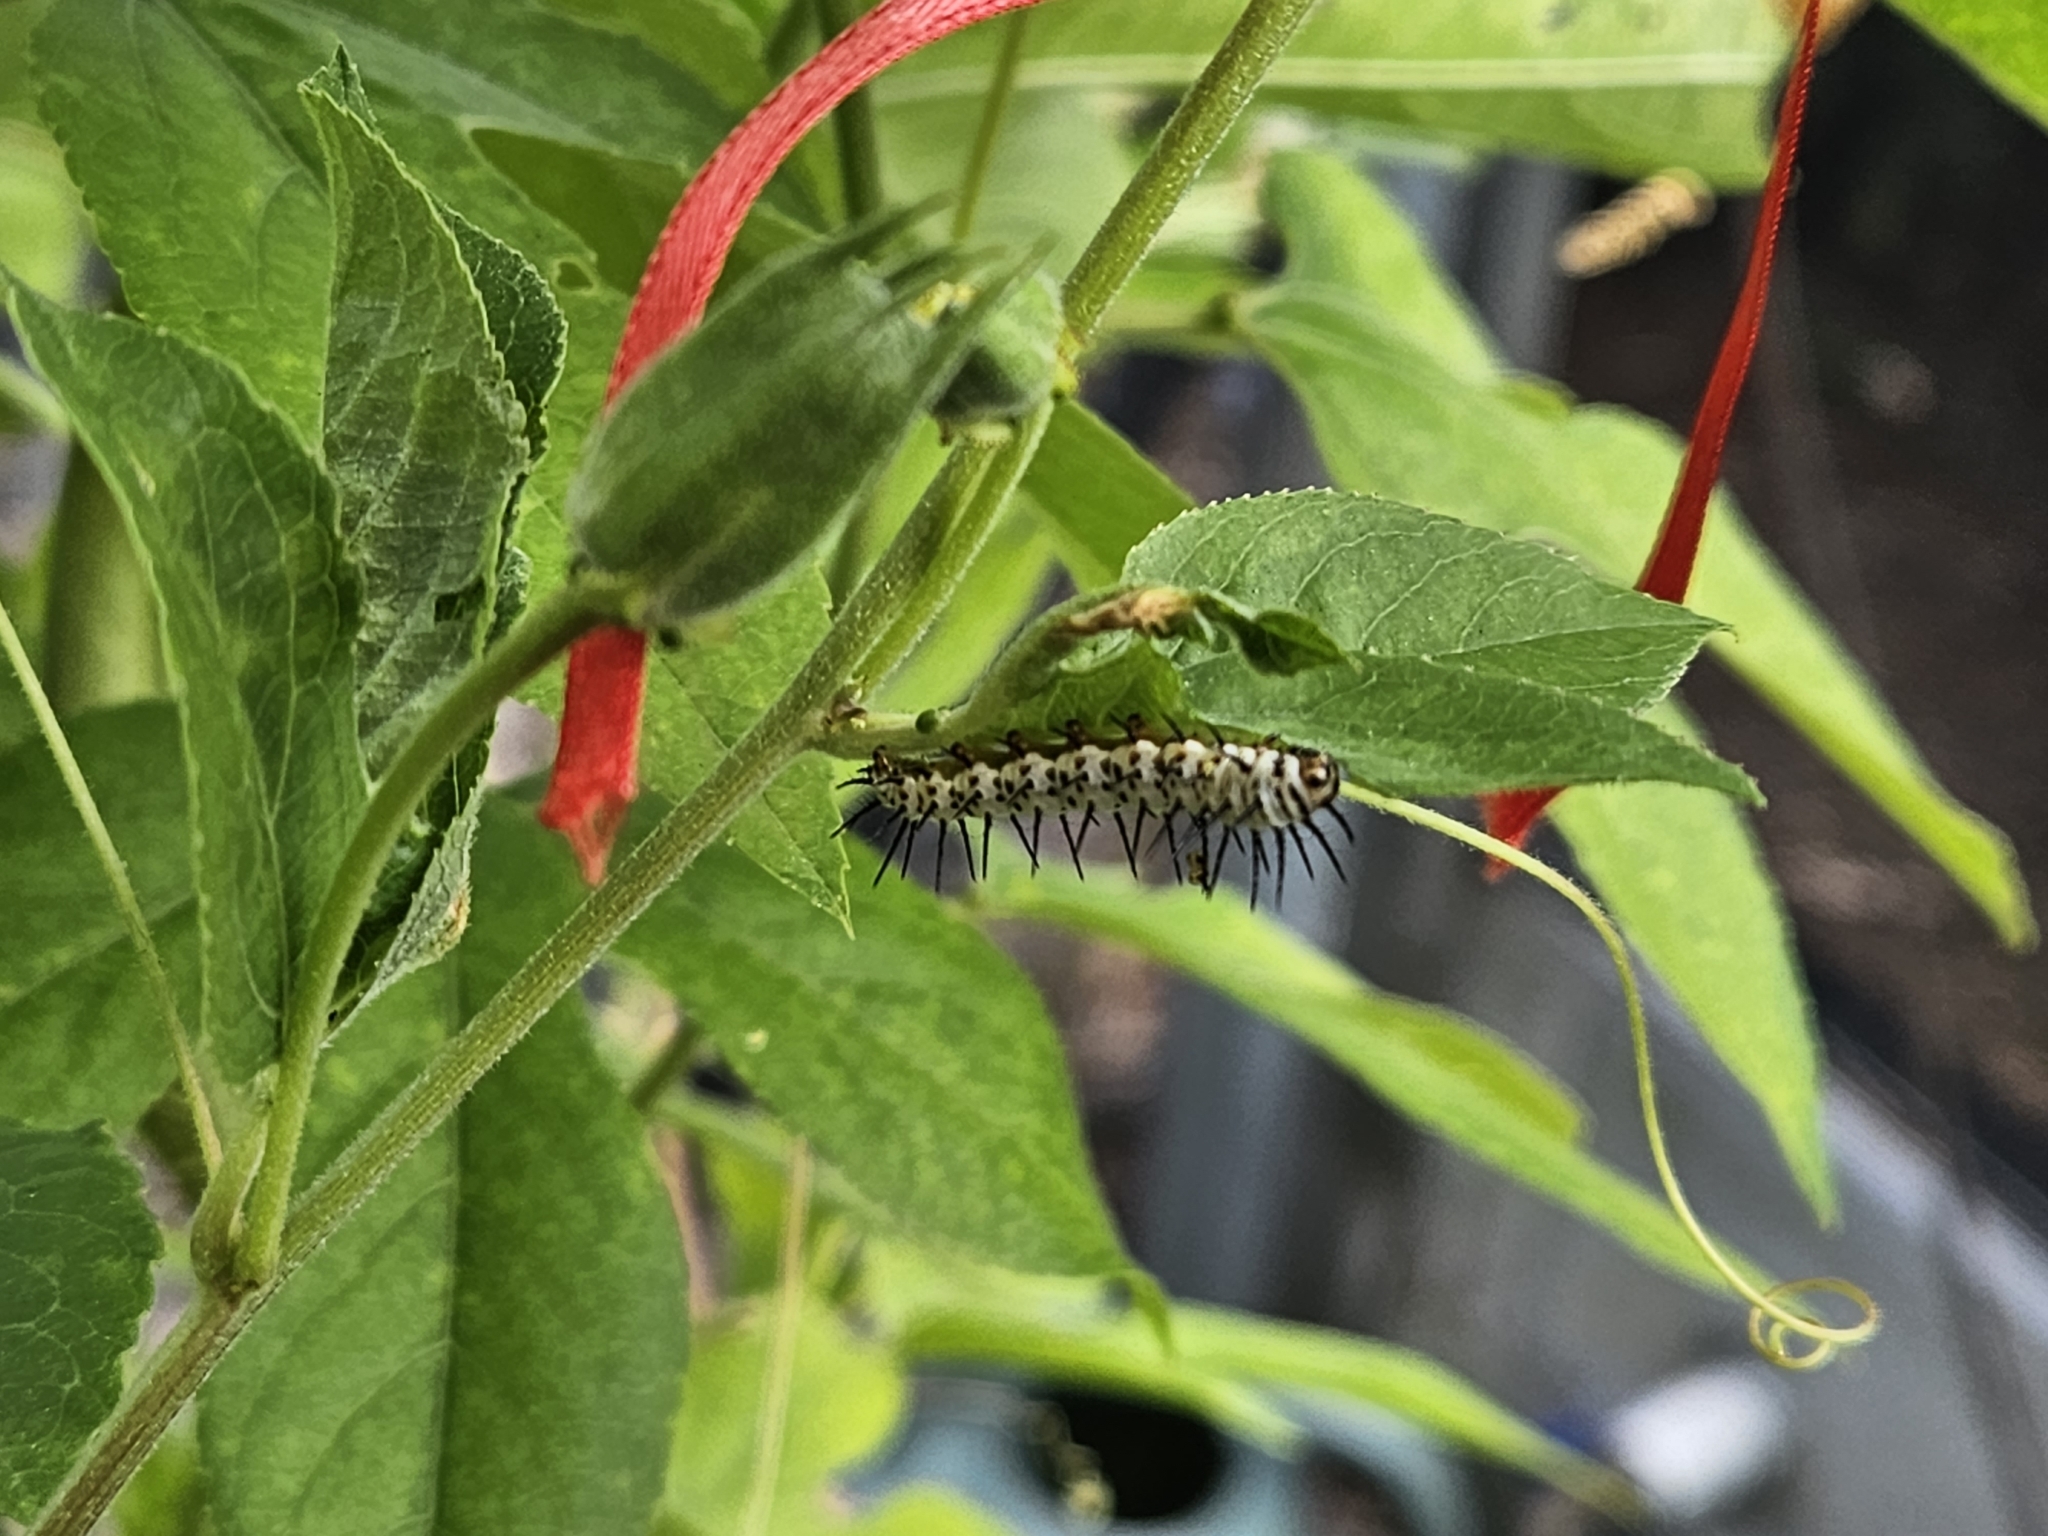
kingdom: Animalia
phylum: Arthropoda
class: Insecta
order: Lepidoptera
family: Nymphalidae
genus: Heliconius
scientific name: Heliconius charithonia
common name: Zebra long wing
